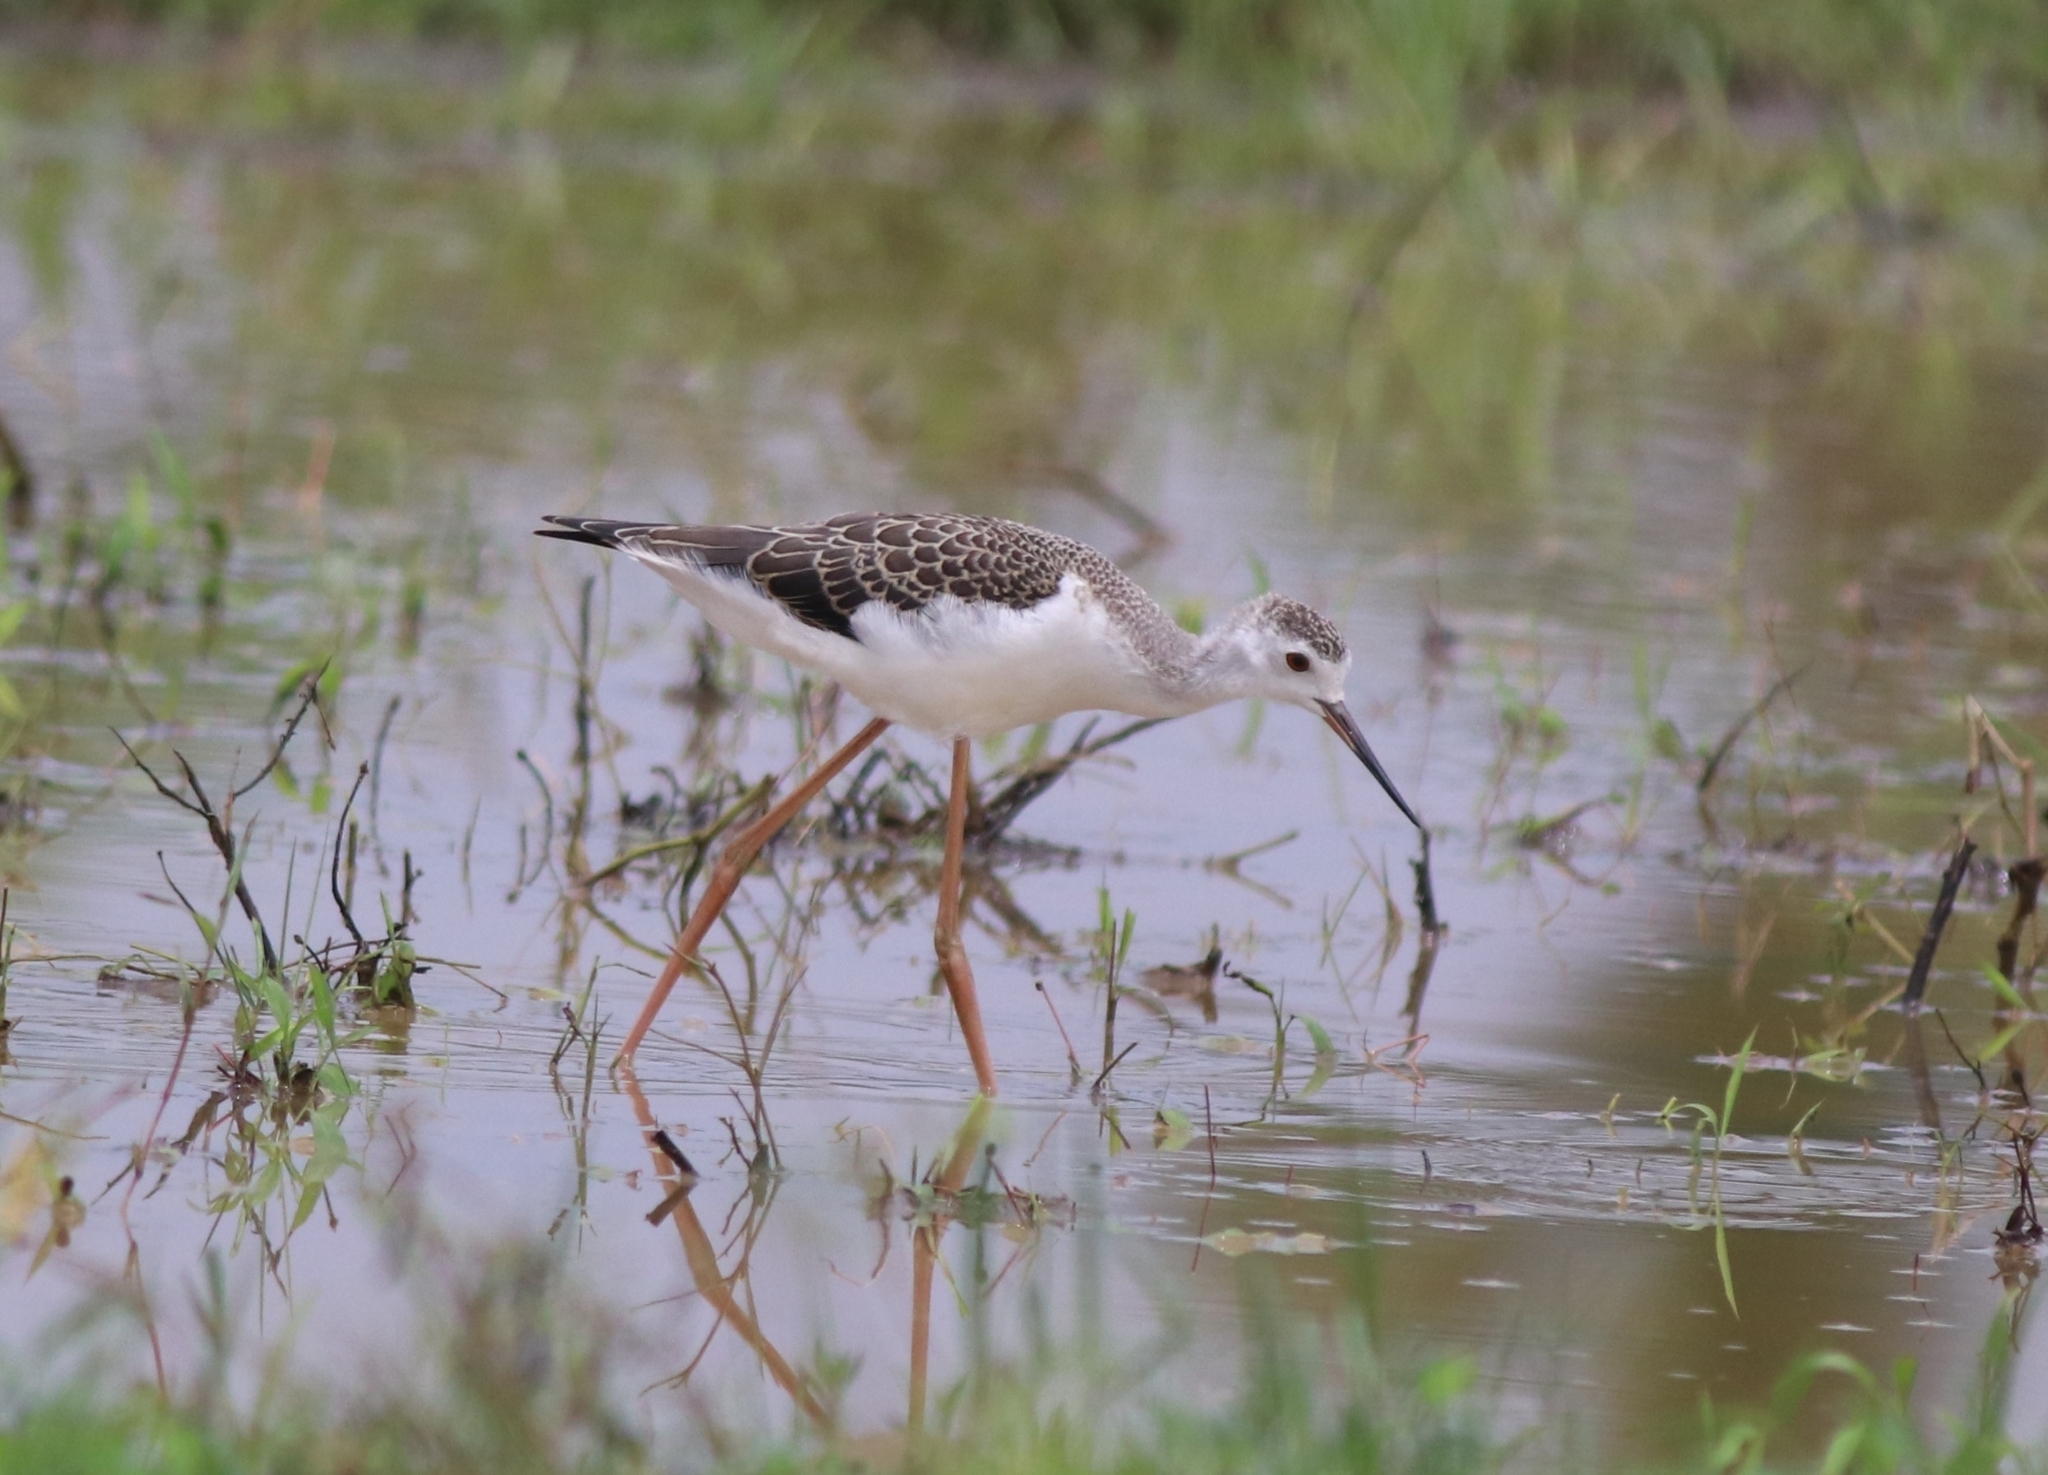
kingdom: Animalia
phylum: Chordata
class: Aves
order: Charadriiformes
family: Recurvirostridae
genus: Himantopus
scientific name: Himantopus himantopus
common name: Black-winged stilt
